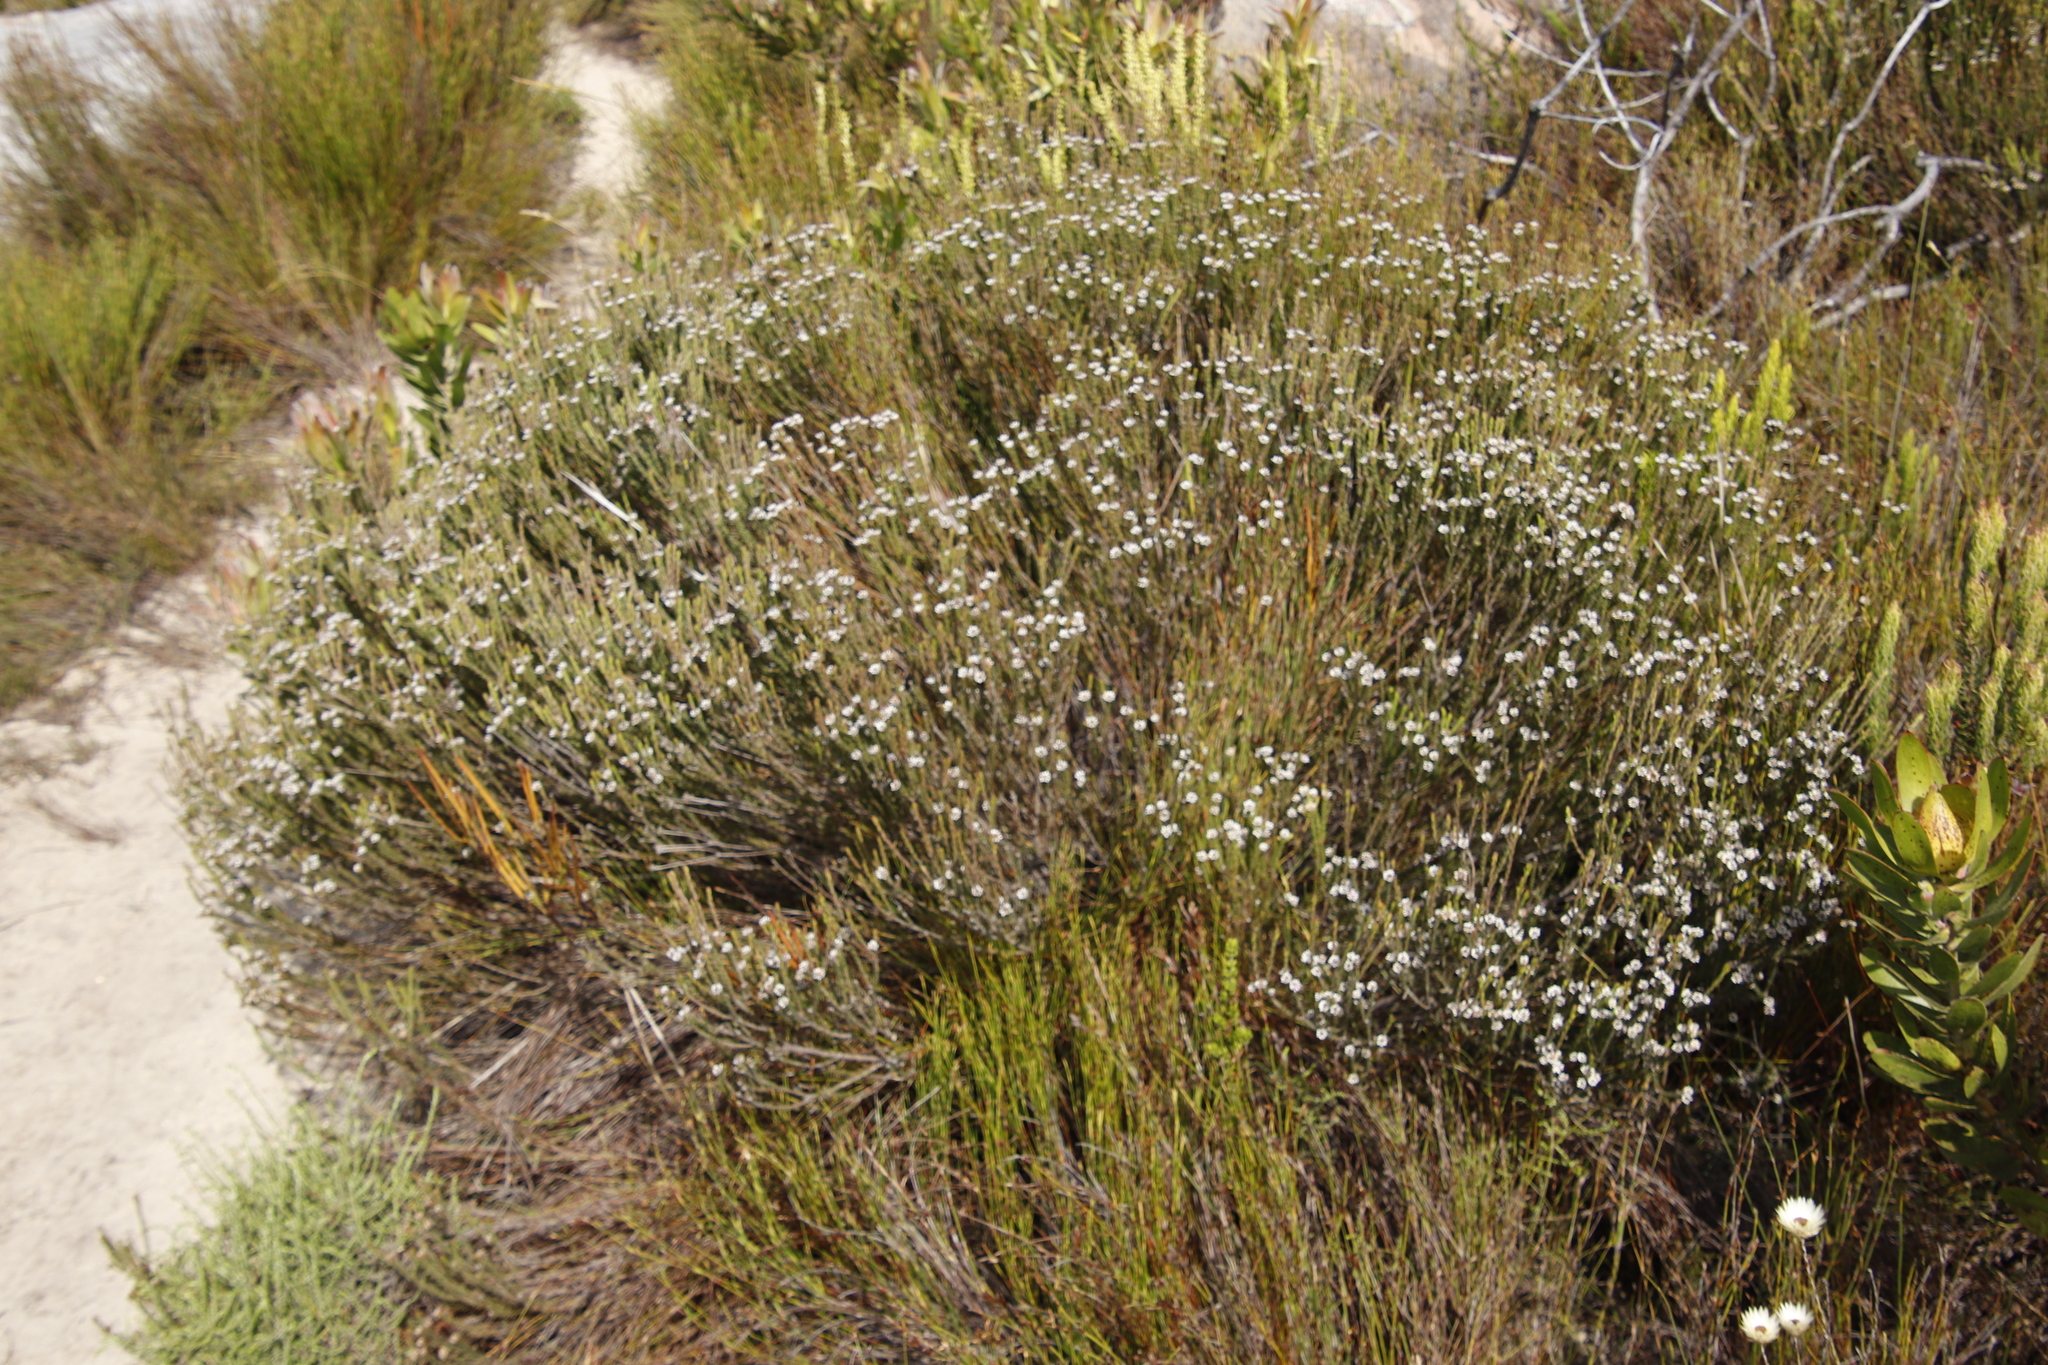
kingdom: Plantae
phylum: Tracheophyta
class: Magnoliopsida
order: Bruniales
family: Bruniaceae
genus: Staavia
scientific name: Staavia radiata
